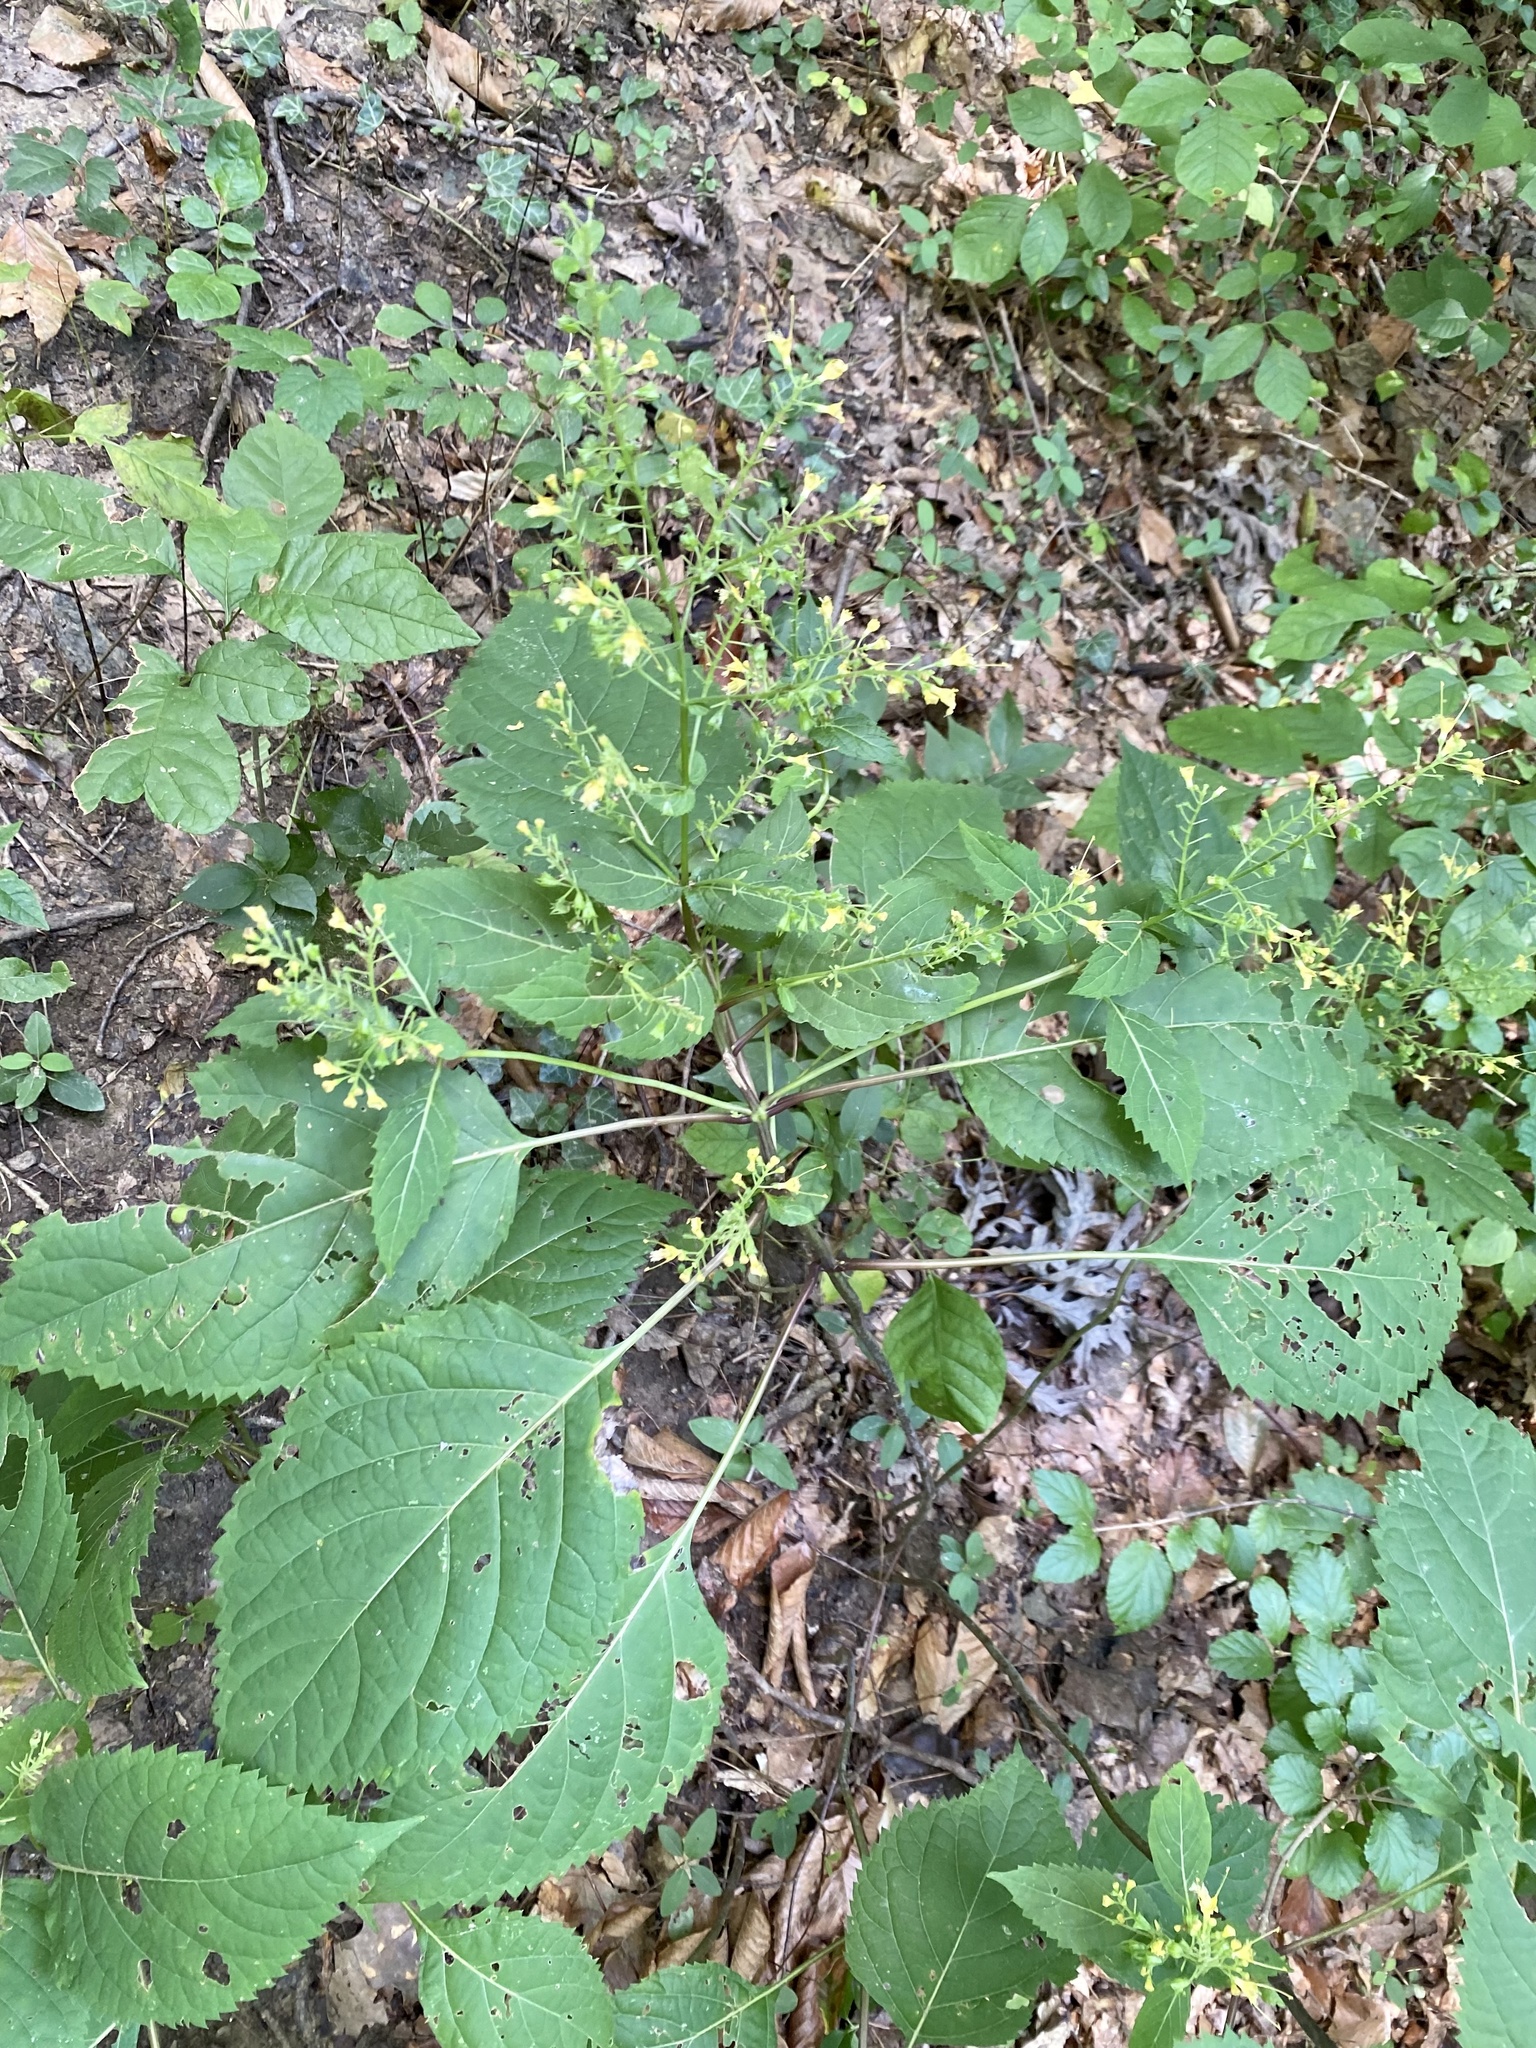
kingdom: Plantae
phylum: Tracheophyta
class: Magnoliopsida
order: Lamiales
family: Lamiaceae
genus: Collinsonia
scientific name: Collinsonia canadensis
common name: Northern horsebalm
